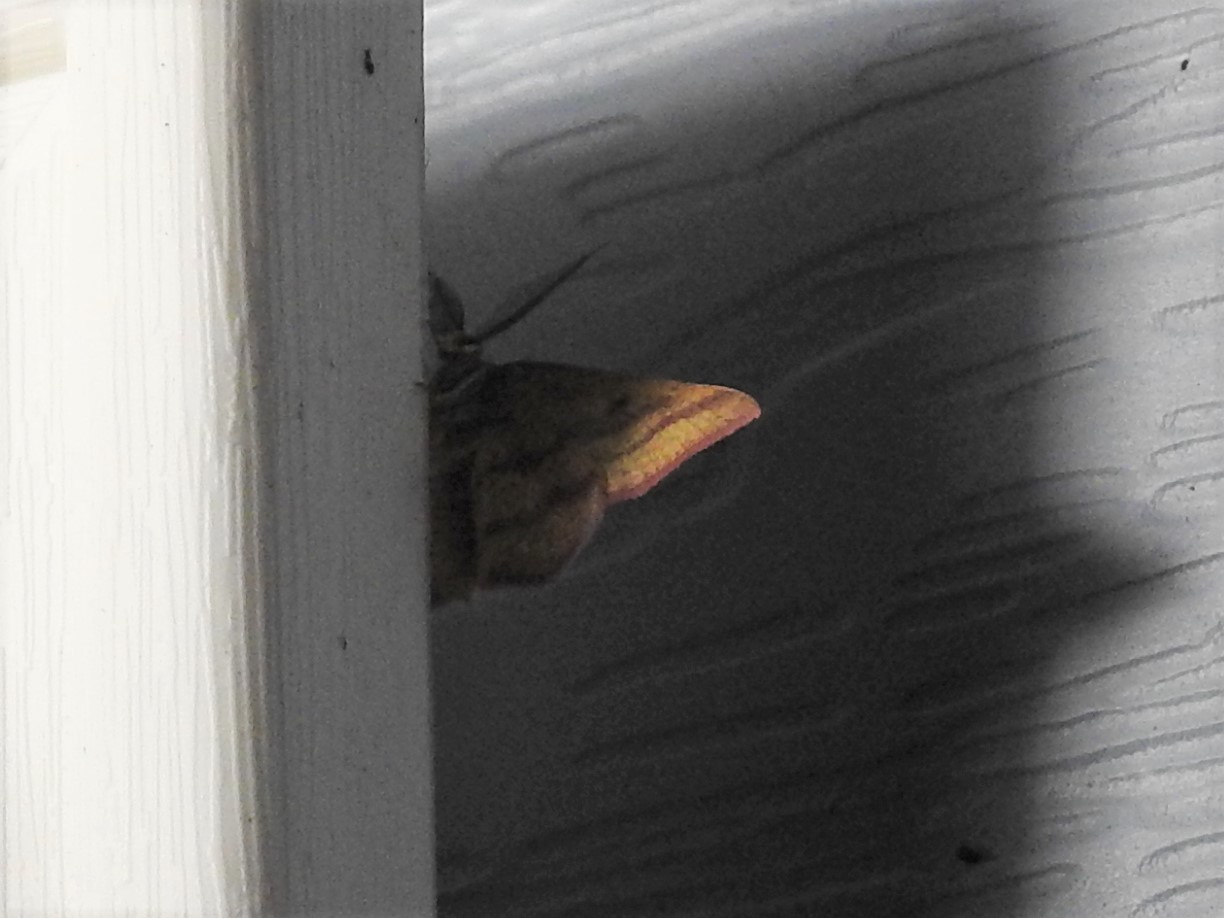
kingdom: Animalia
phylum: Arthropoda
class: Insecta
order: Lepidoptera
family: Geometridae
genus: Haematopis
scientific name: Haematopis grataria
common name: Chickweed geometer
